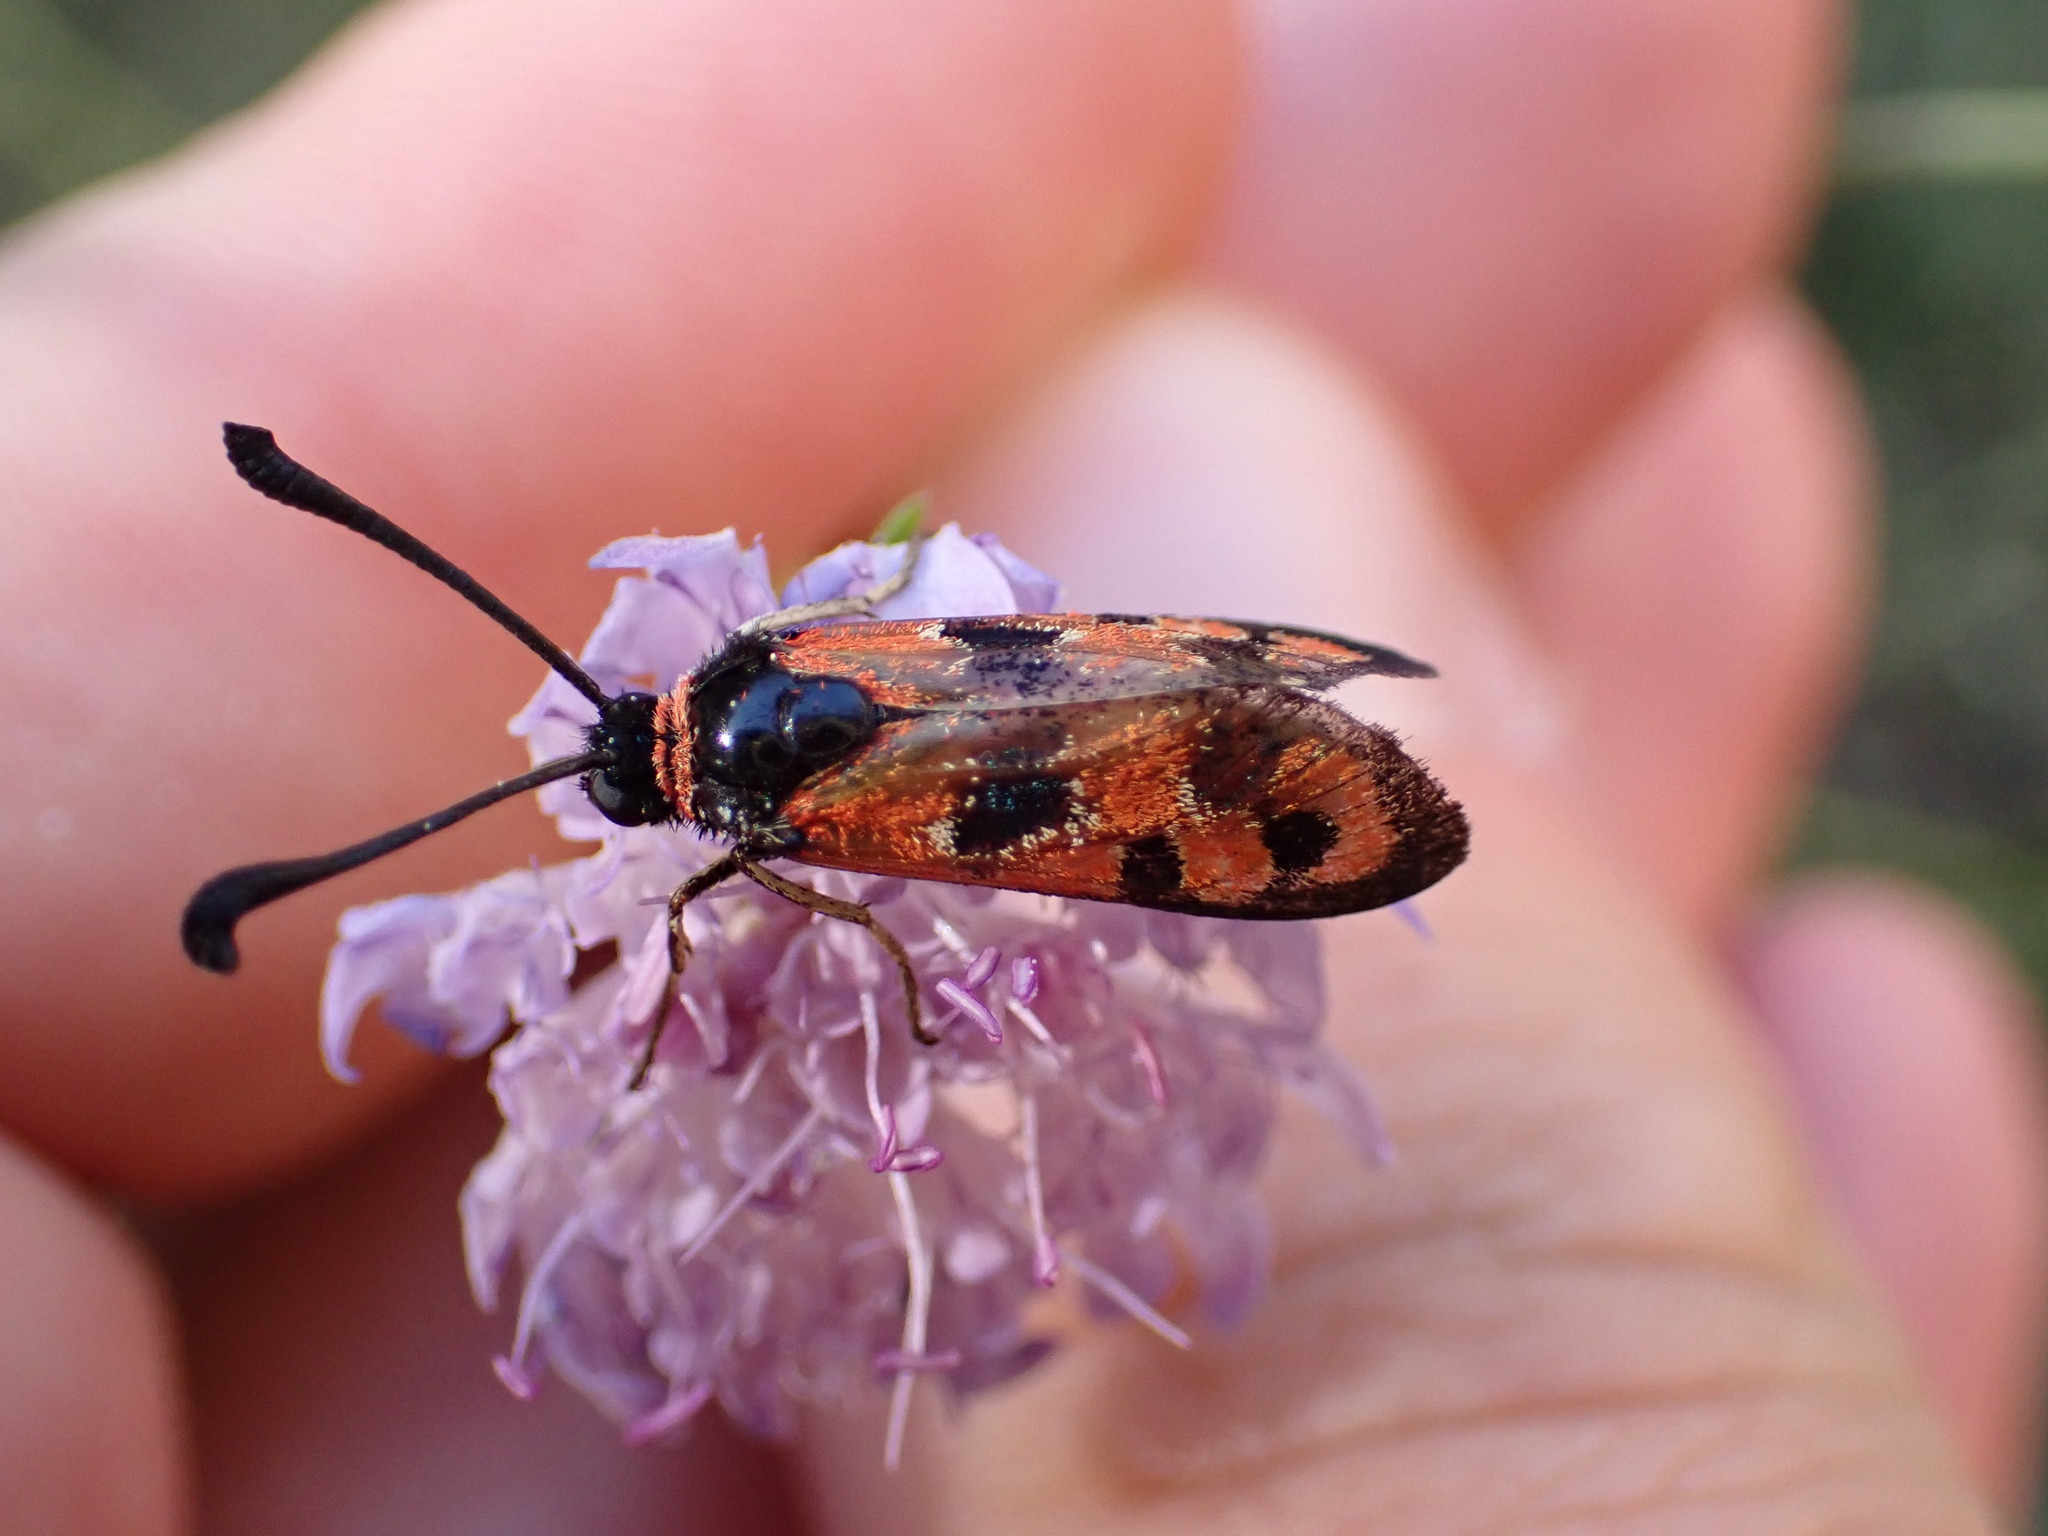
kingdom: Animalia
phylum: Arthropoda
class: Insecta
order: Lepidoptera
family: Zygaenidae
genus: Zygaena
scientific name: Zygaena fausta
